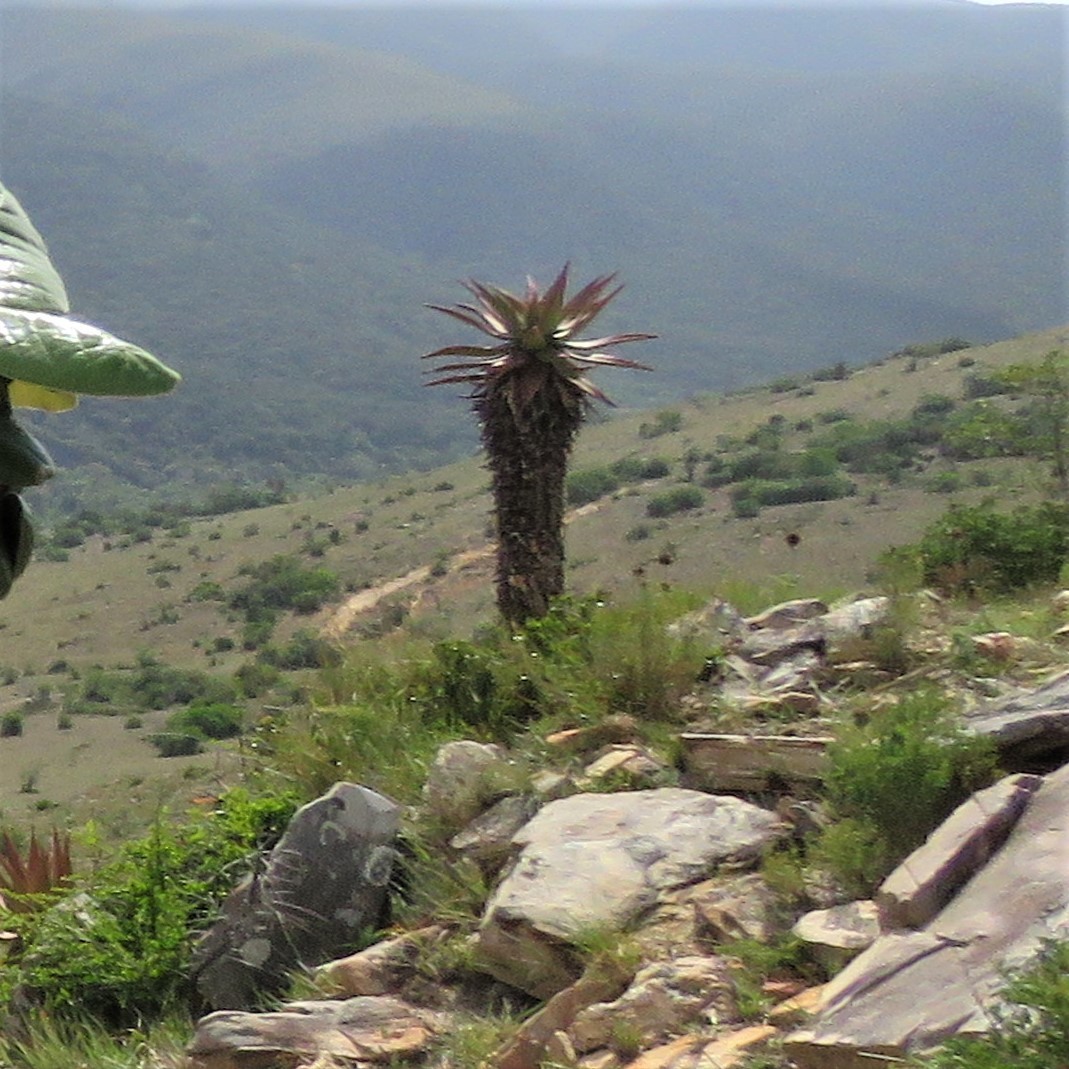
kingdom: Plantae
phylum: Tracheophyta
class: Liliopsida
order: Asparagales
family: Asphodelaceae
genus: Aloe
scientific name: Aloe ferox
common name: Bitter aloe
